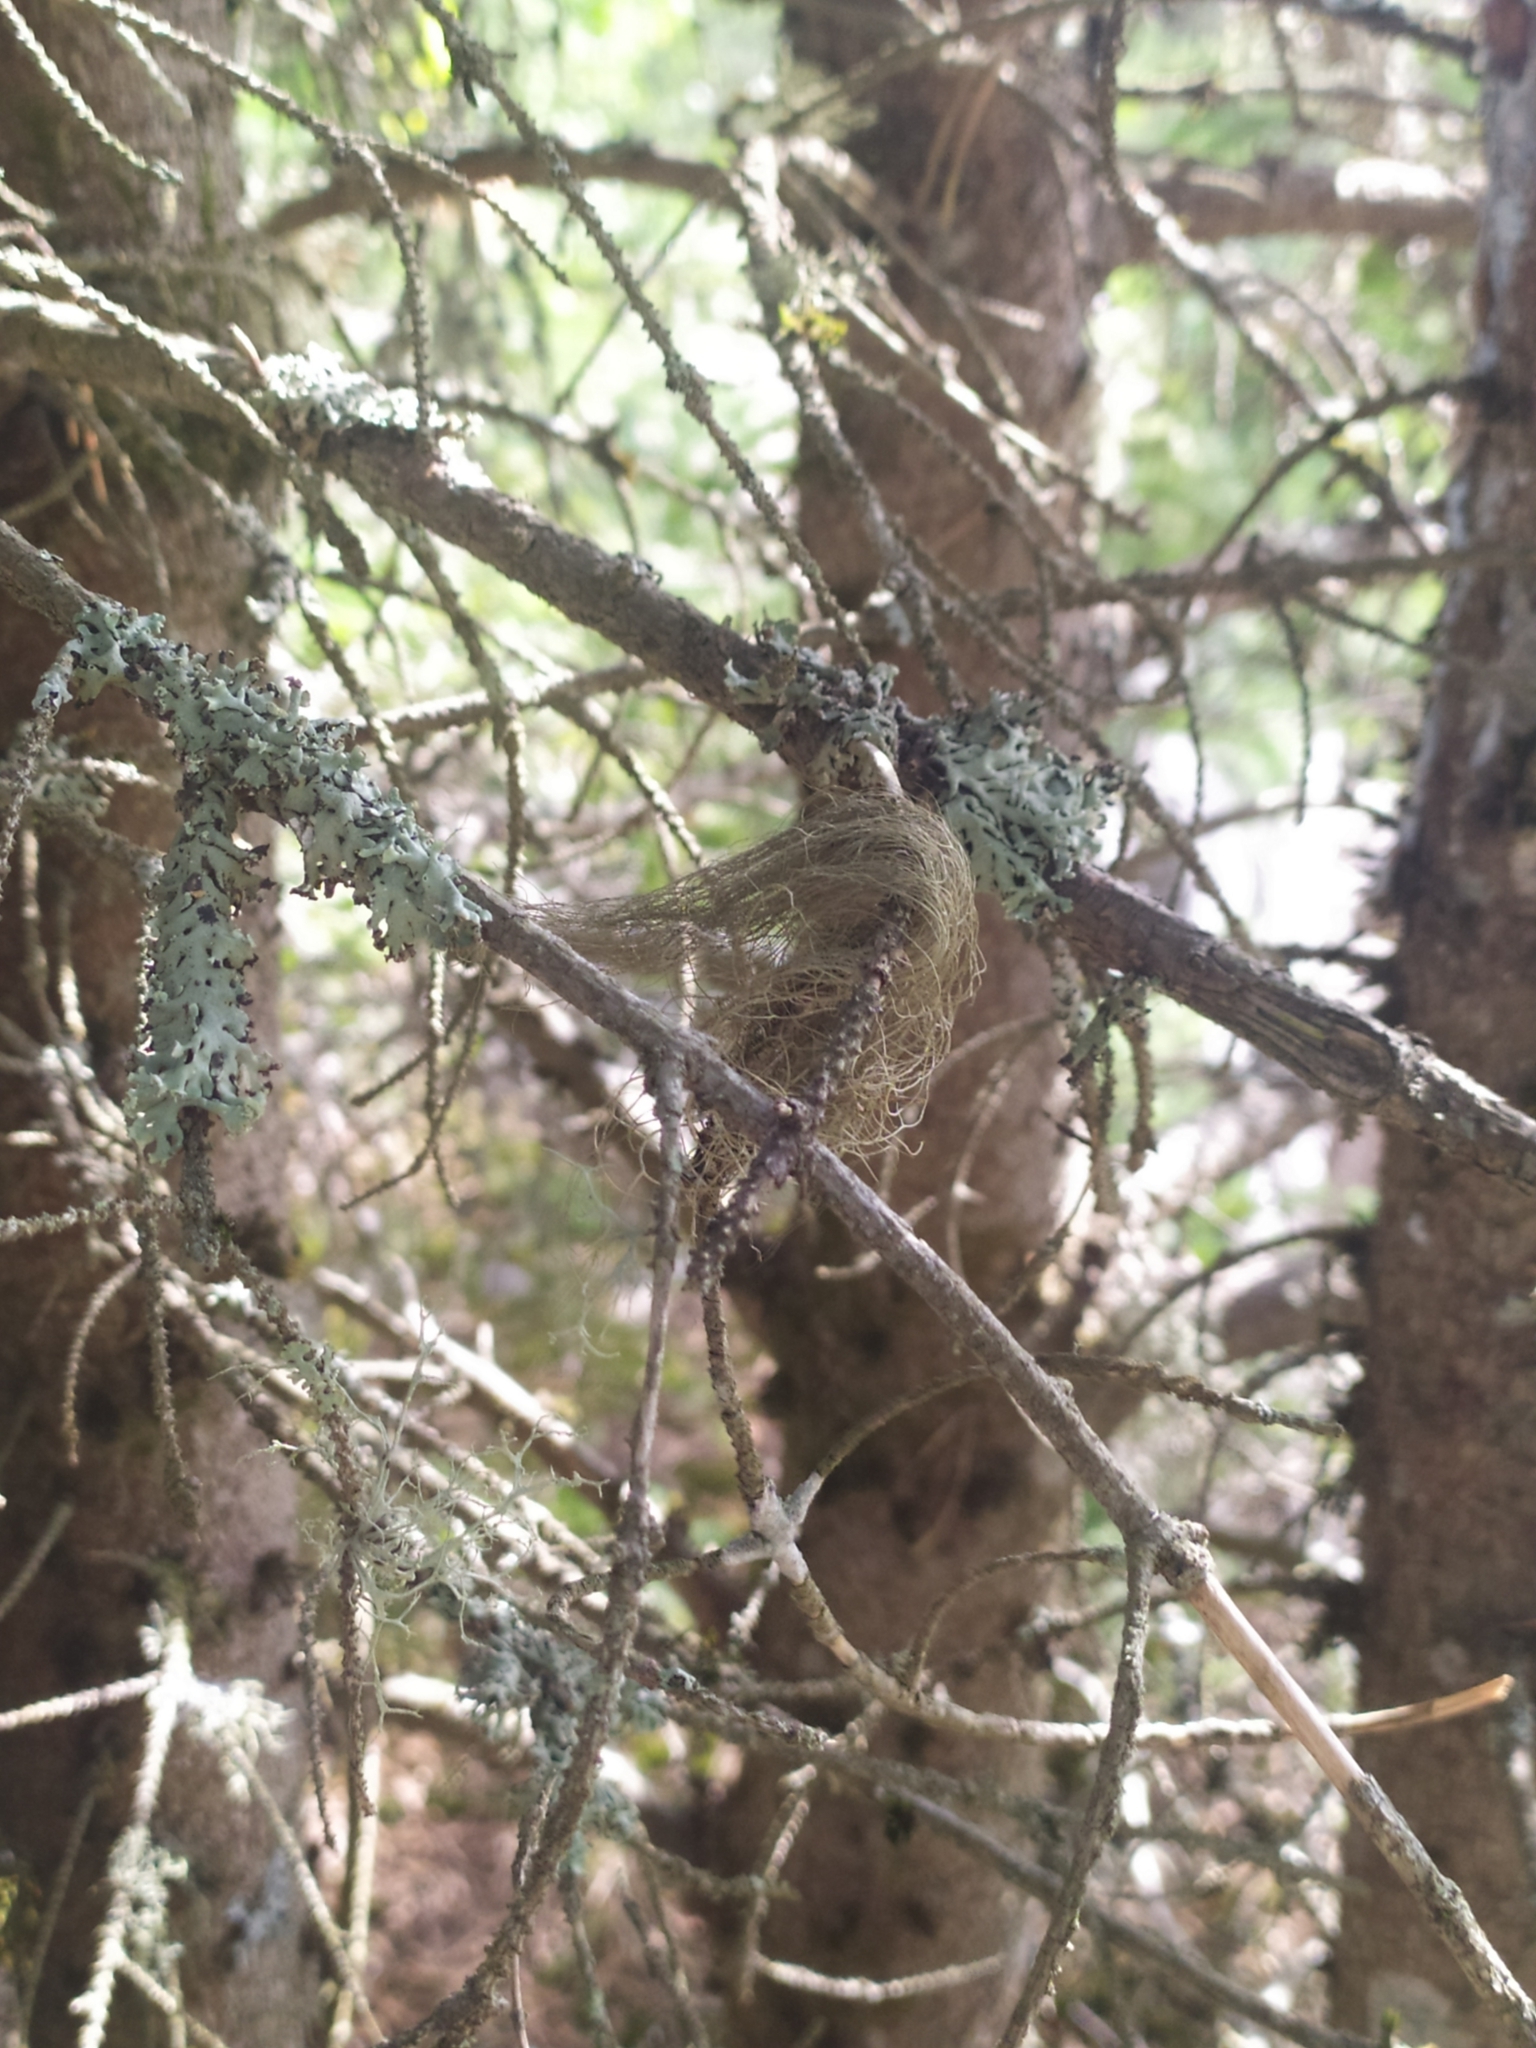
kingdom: Fungi
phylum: Ascomycota
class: Lecanoromycetes
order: Lecanorales
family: Parmeliaceae
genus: Bryoria
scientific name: Bryoria fuscescens
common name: Pale-footed horsehair lichen
